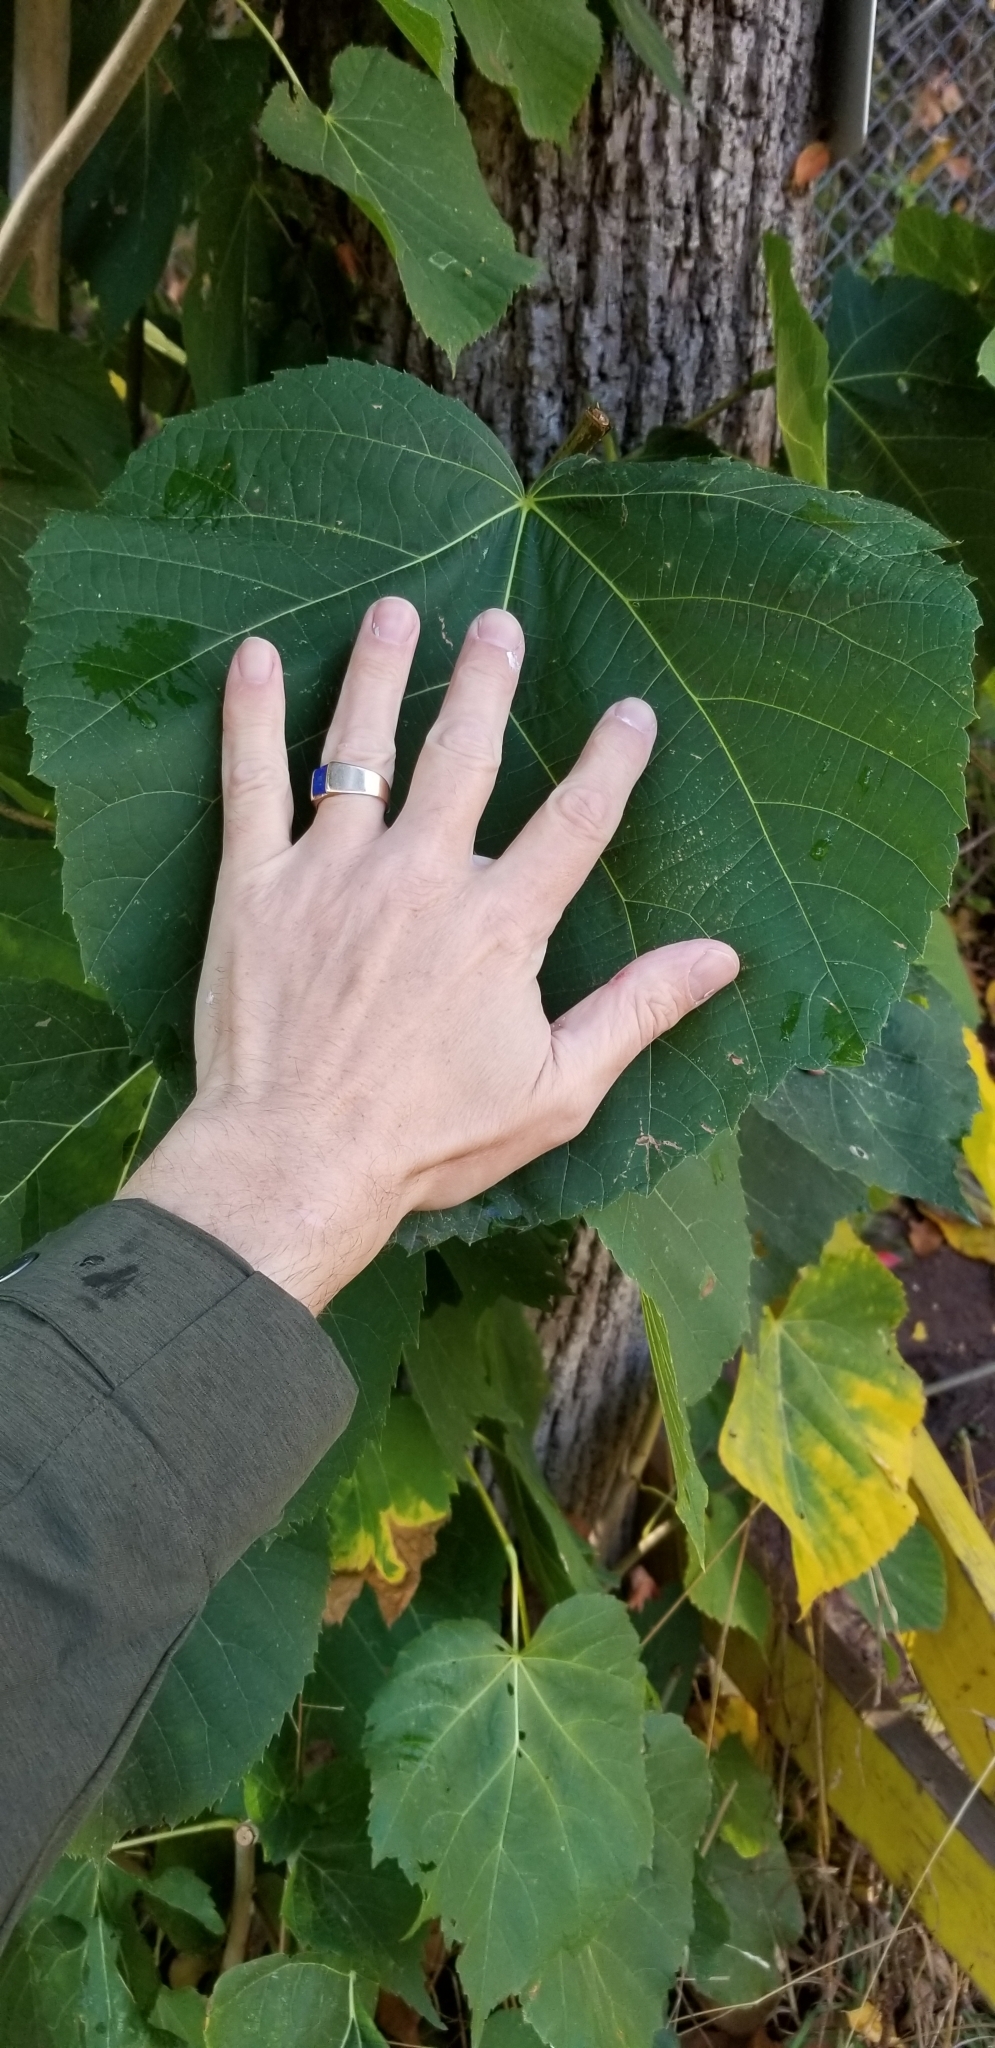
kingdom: Plantae
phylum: Tracheophyta
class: Magnoliopsida
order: Malvales
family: Malvaceae
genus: Tilia
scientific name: Tilia americana
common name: Basswood
